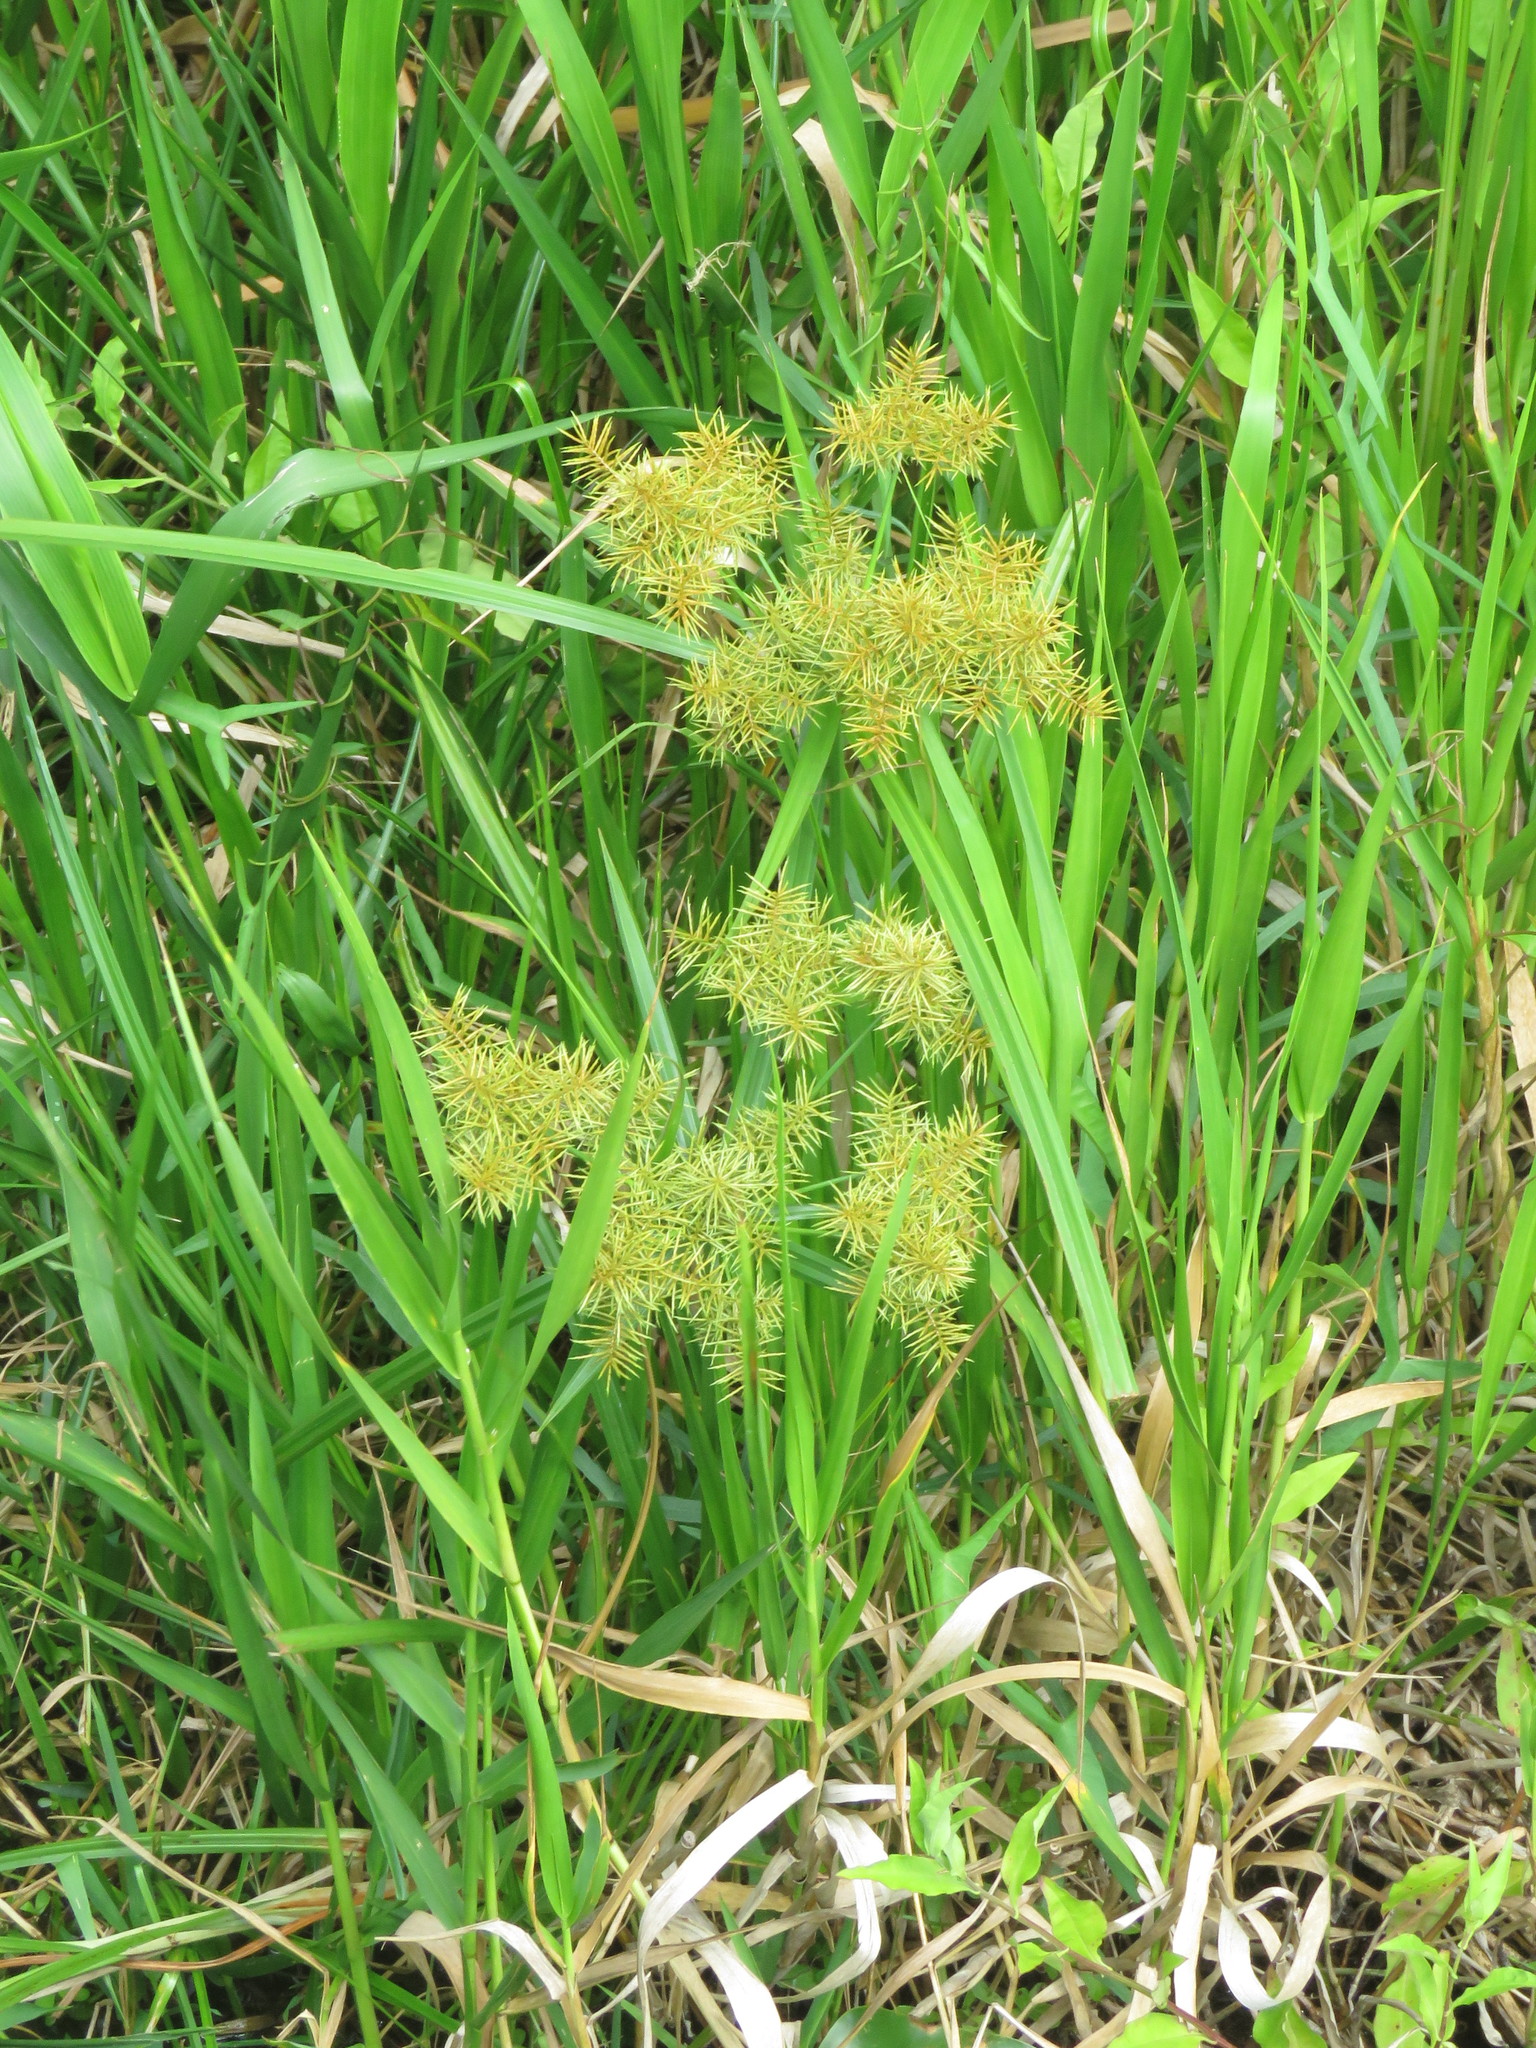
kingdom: Plantae
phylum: Tracheophyta
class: Liliopsida
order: Poales
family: Cyperaceae
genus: Cyperus
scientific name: Cyperus odoratus
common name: Fragrant flatsedge
